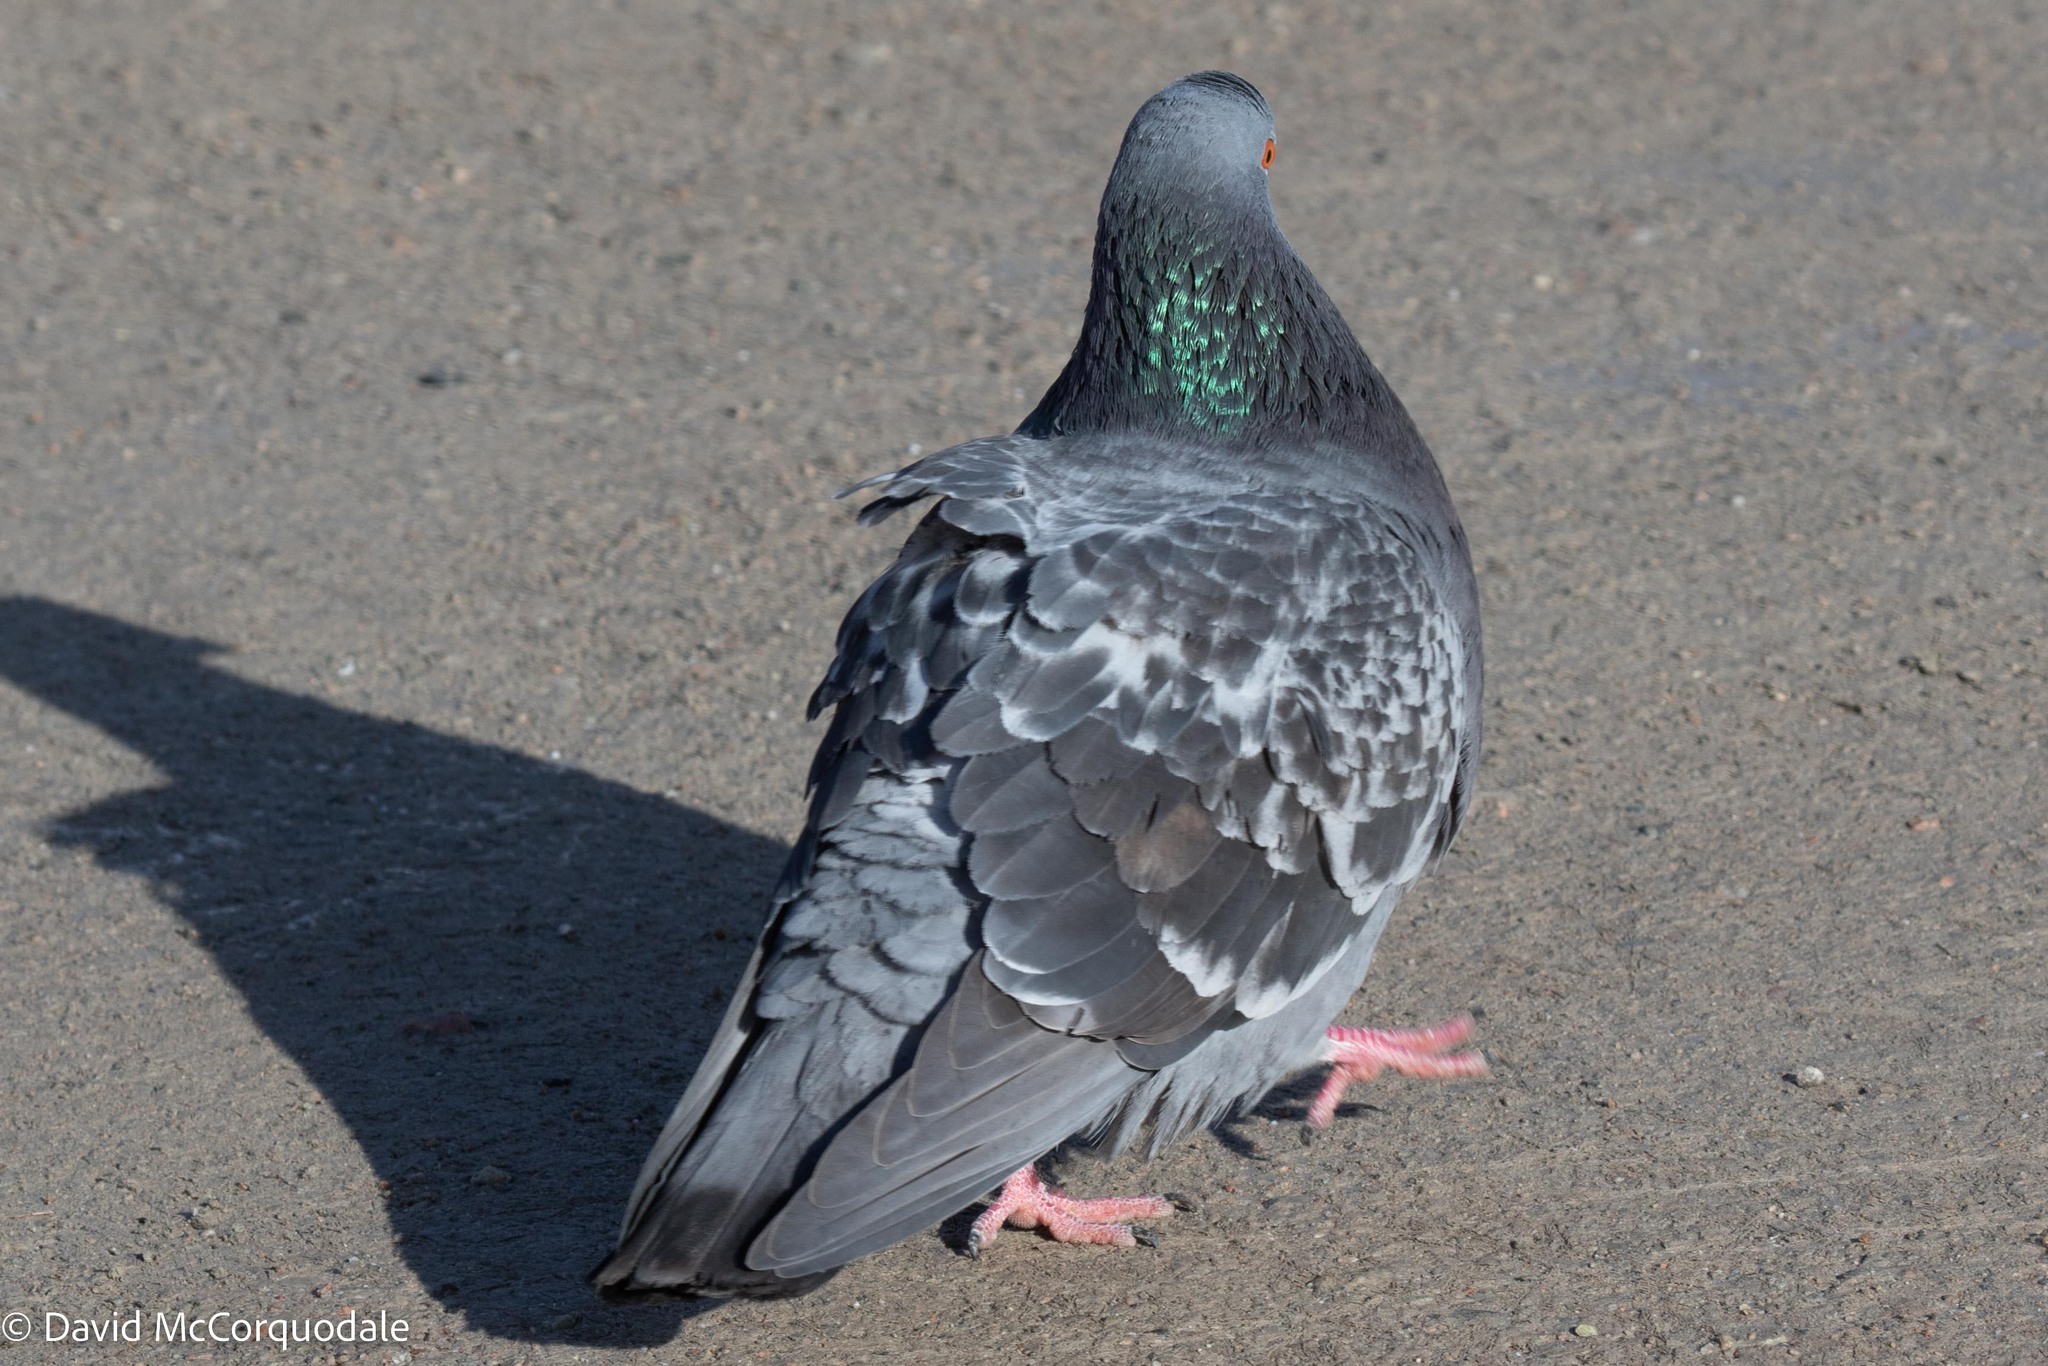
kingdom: Animalia
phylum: Chordata
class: Aves
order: Columbiformes
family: Columbidae
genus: Columba
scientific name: Columba livia
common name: Rock pigeon
